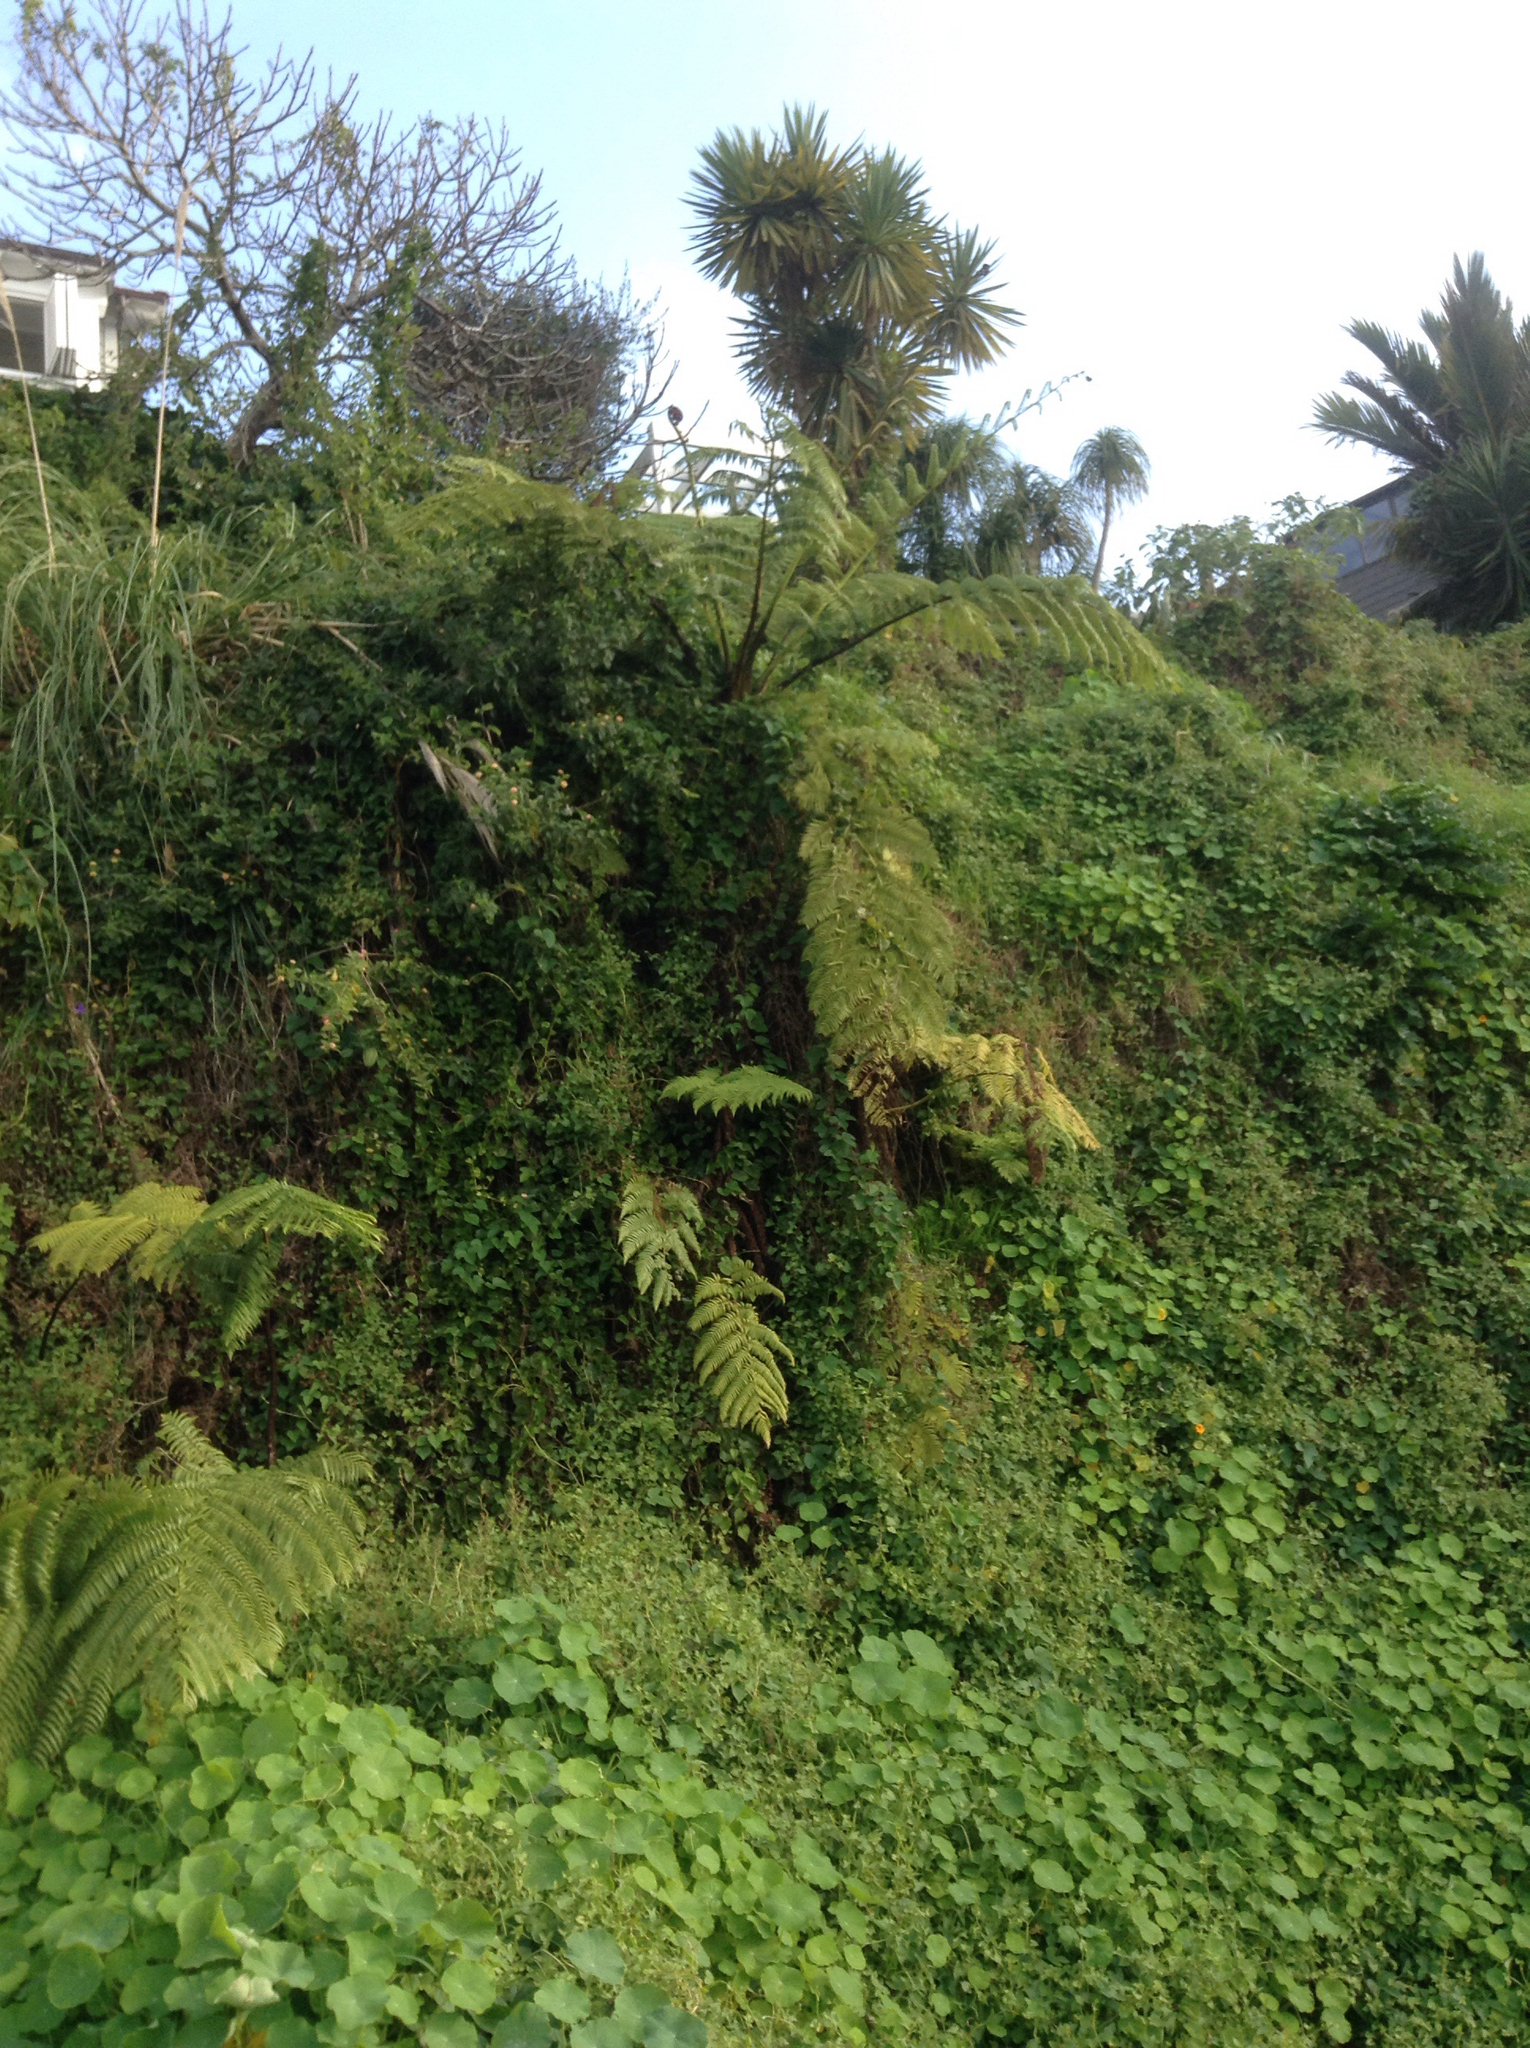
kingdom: Plantae
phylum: Tracheophyta
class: Polypodiopsida
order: Cyatheales
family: Cyatheaceae
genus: Sphaeropteris
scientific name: Sphaeropteris medullaris
